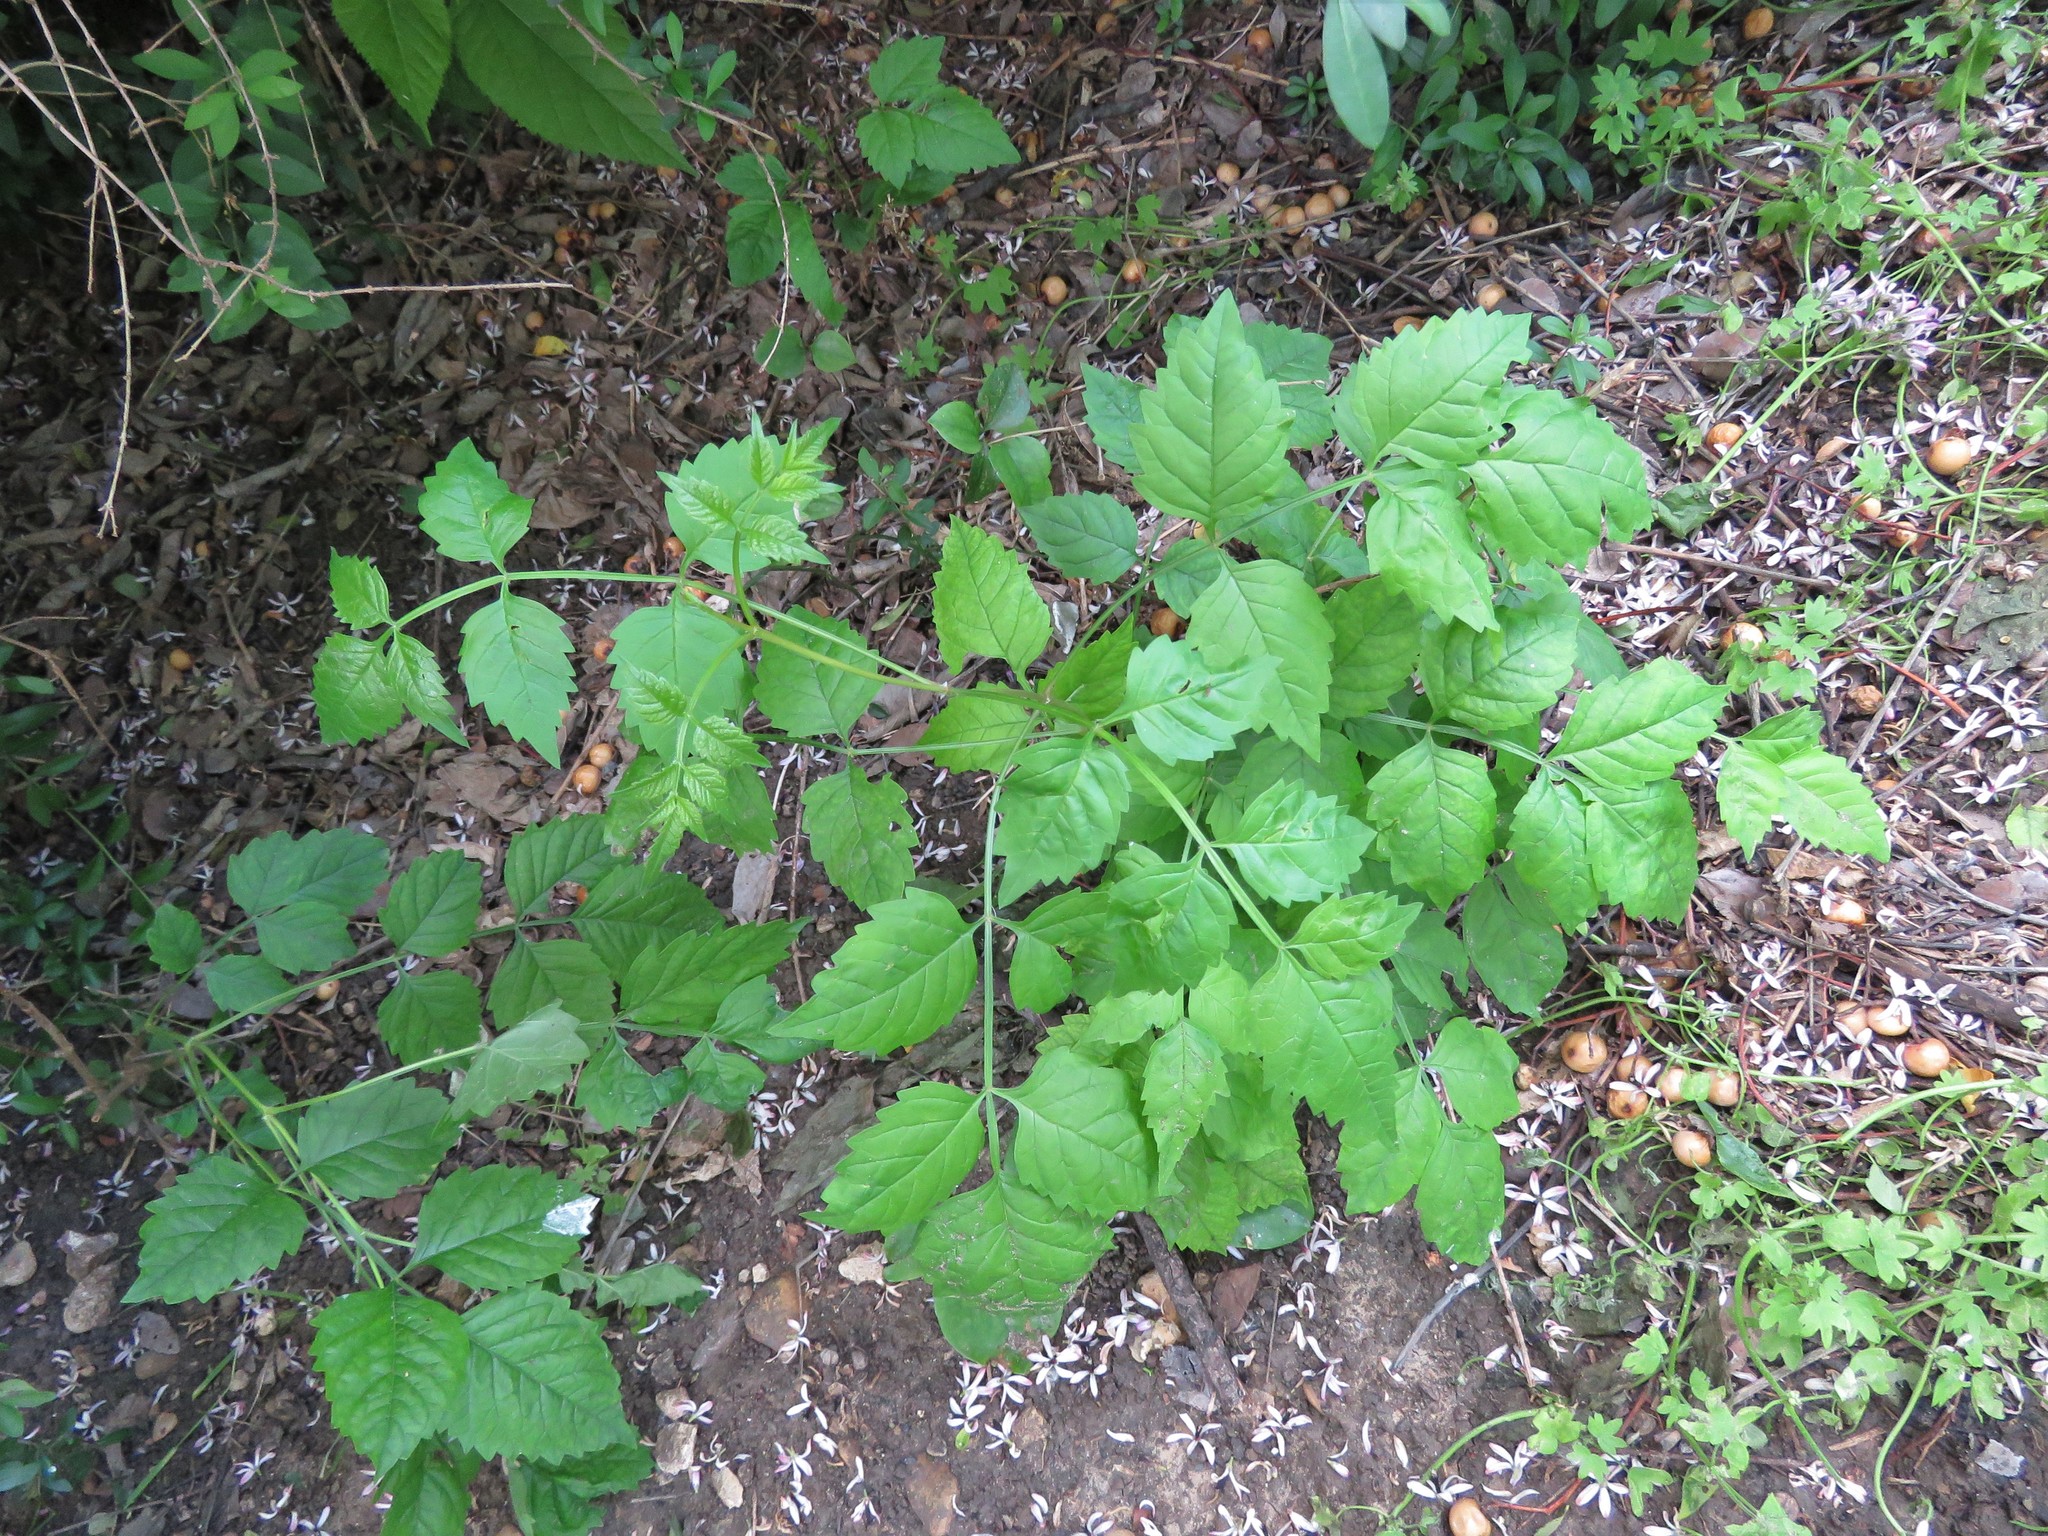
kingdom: Plantae
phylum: Tracheophyta
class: Magnoliopsida
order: Lamiales
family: Bignoniaceae
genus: Campsis
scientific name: Campsis radicans
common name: Trumpet-creeper
